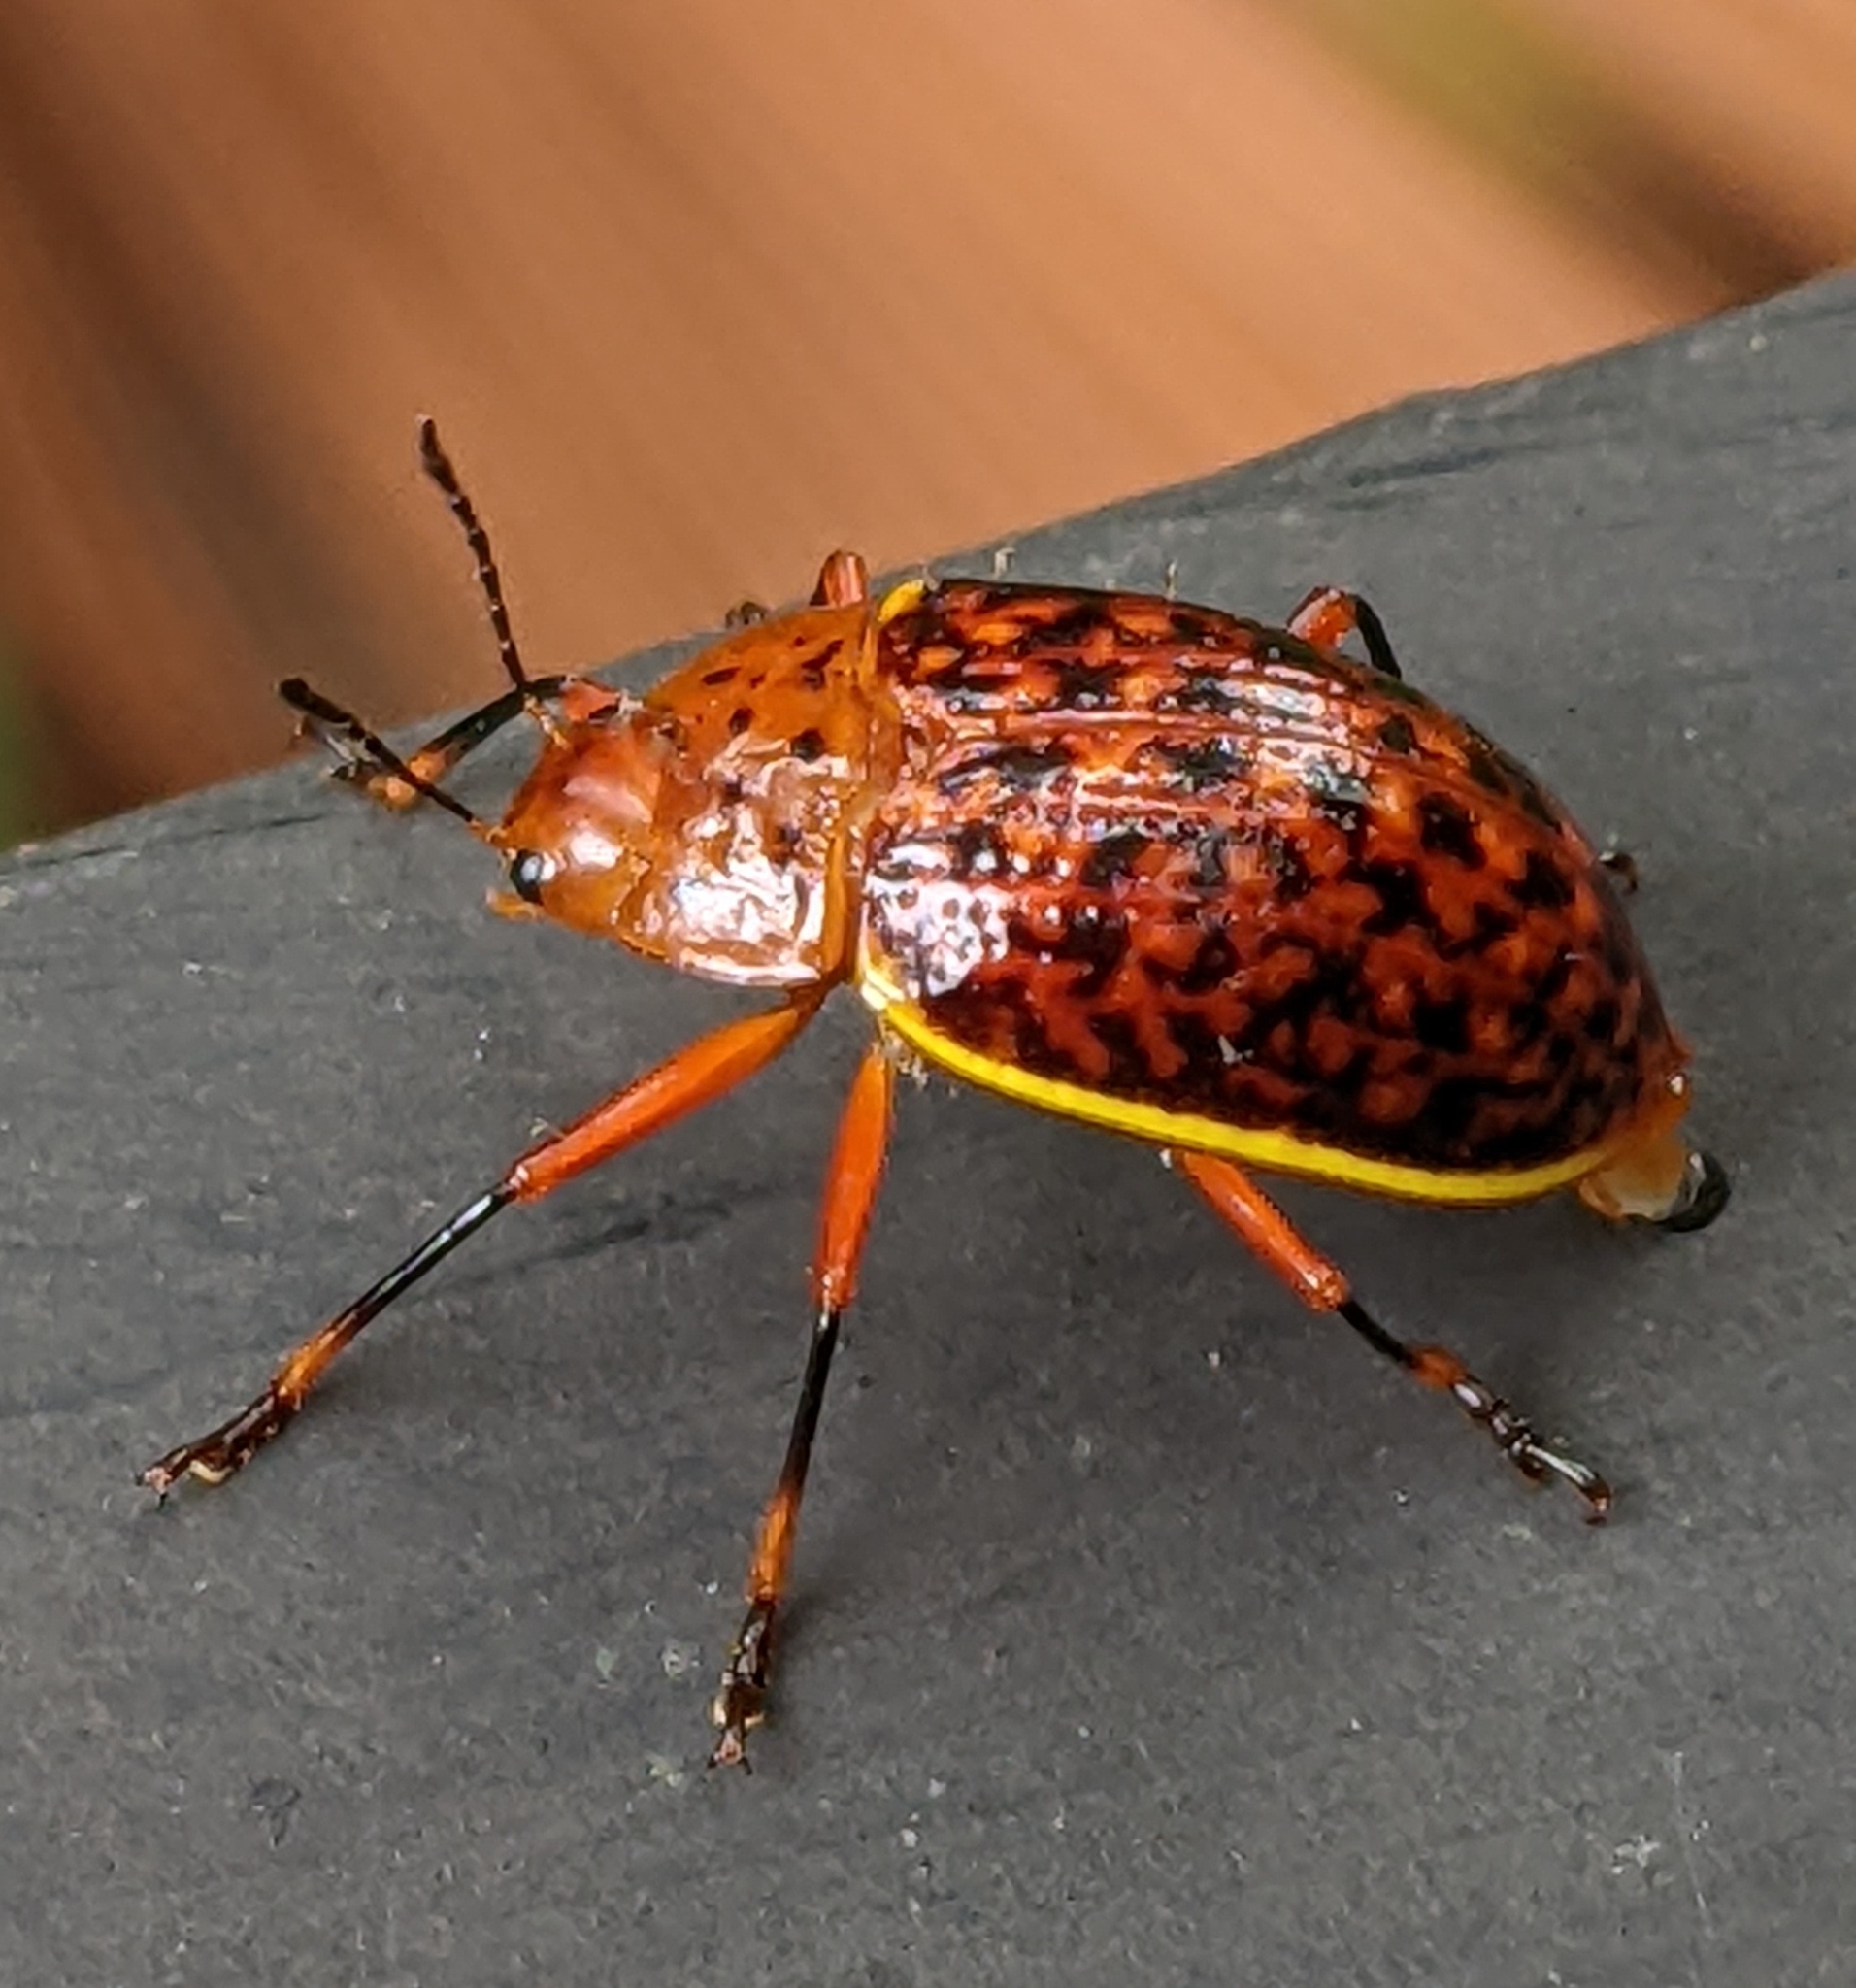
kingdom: Animalia
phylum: Arthropoda
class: Insecta
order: Coleoptera
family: Erotylidae
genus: Erotylina
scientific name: Erotylina
